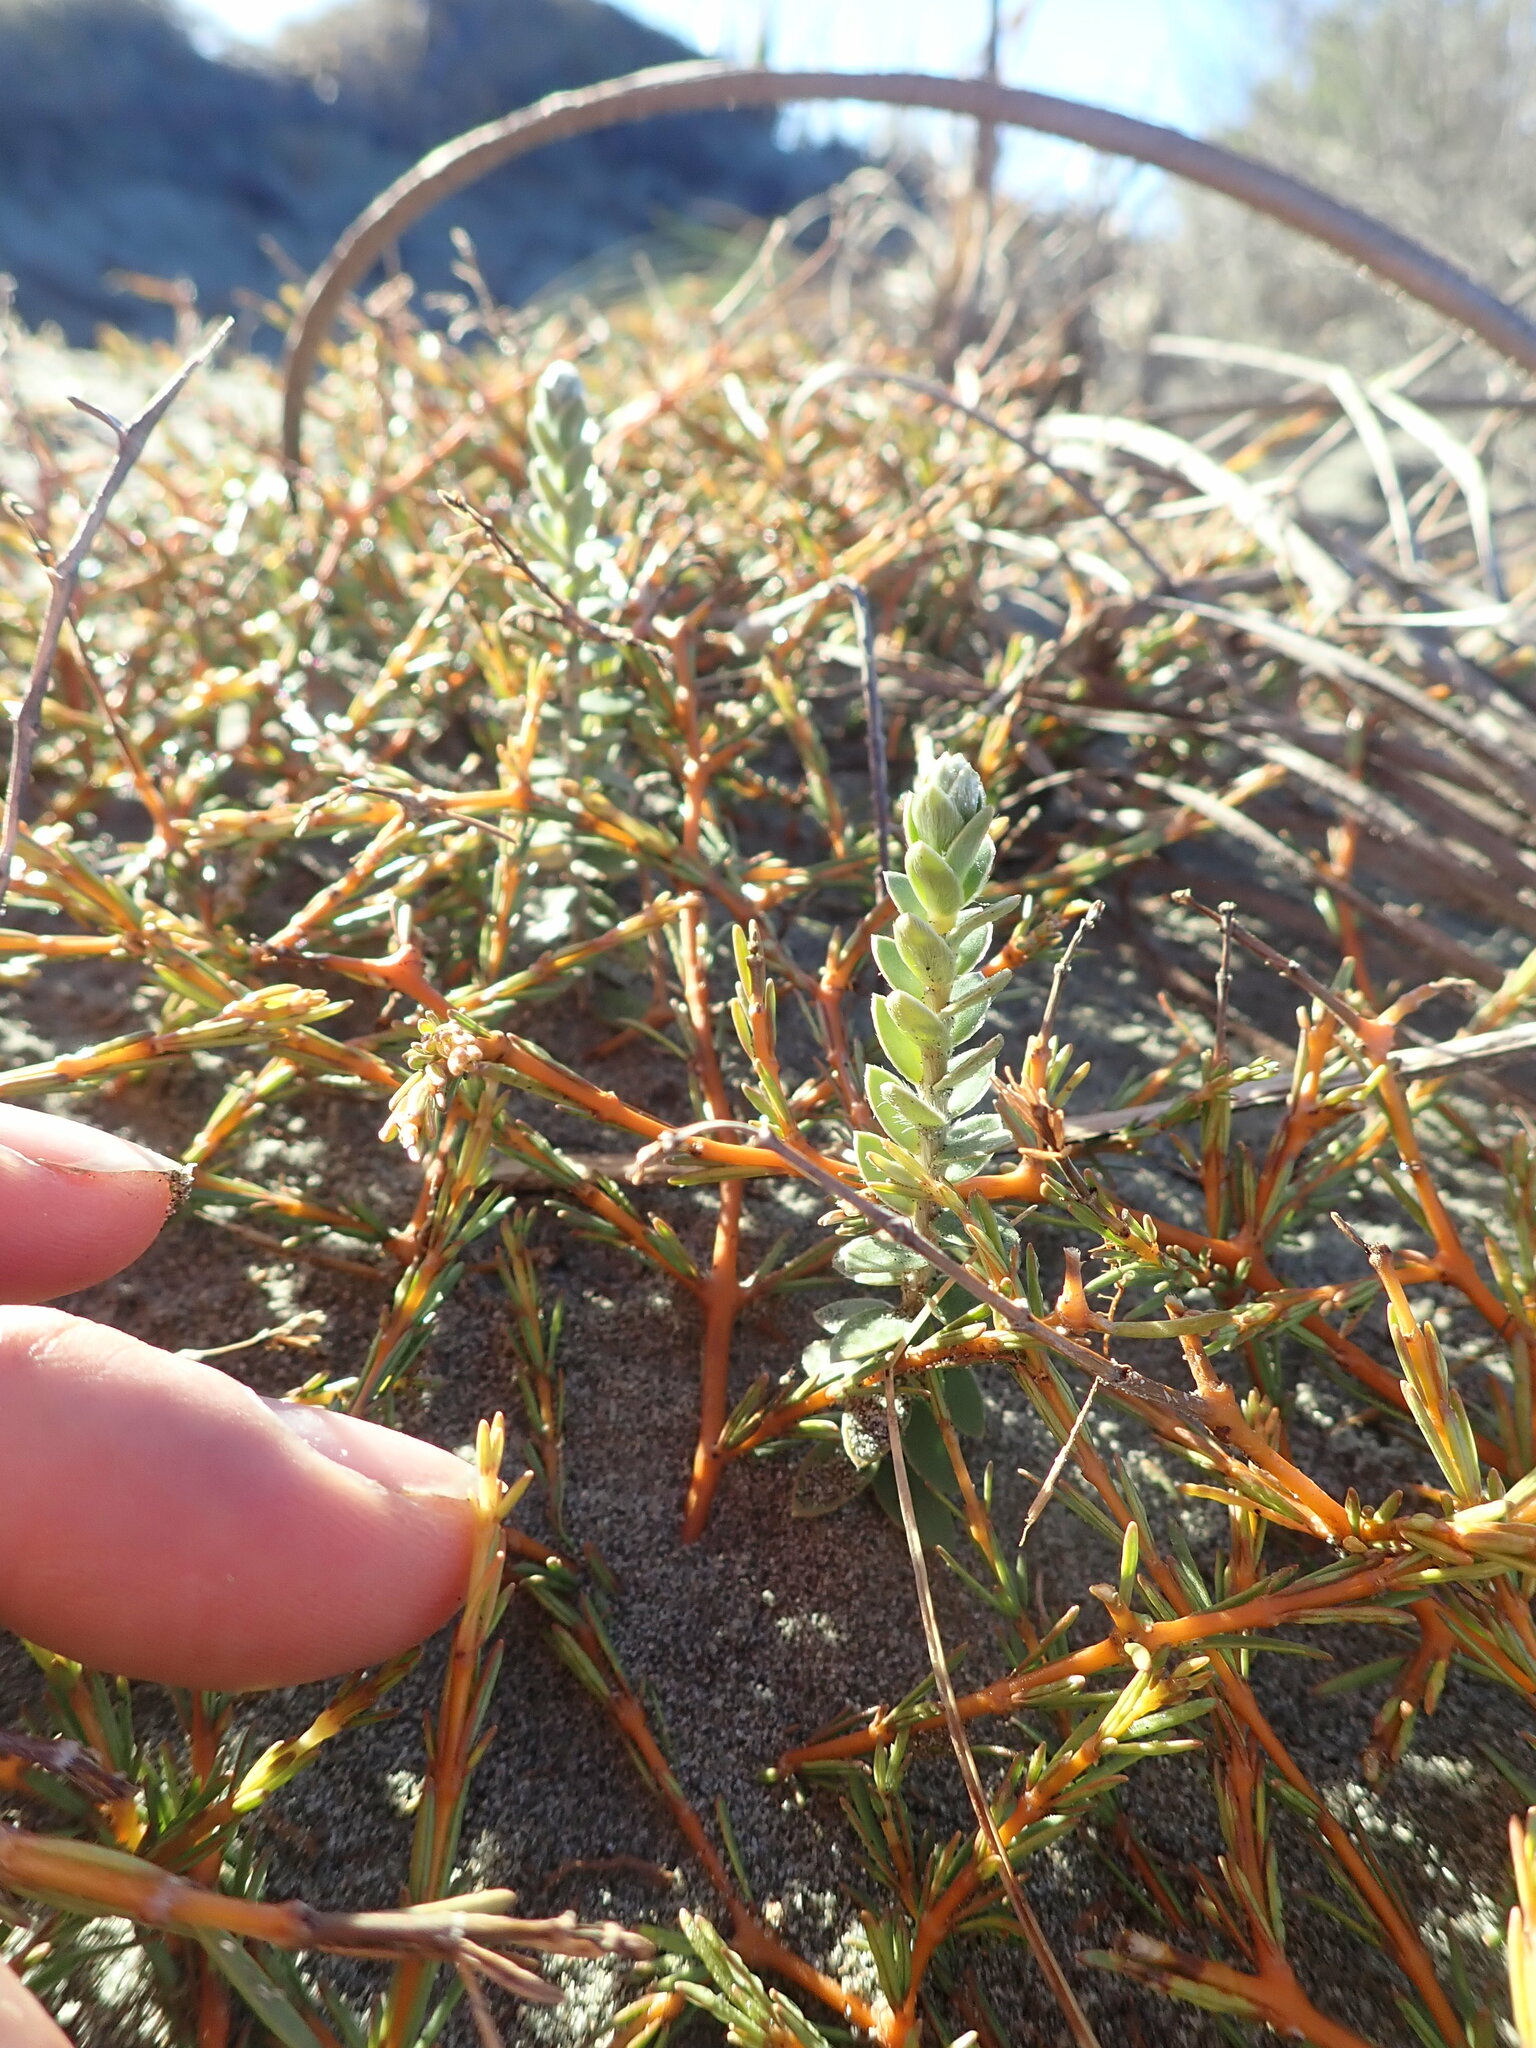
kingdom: Plantae
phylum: Tracheophyta
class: Magnoliopsida
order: Malvales
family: Thymelaeaceae
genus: Pimelea
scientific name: Pimelea villosa
